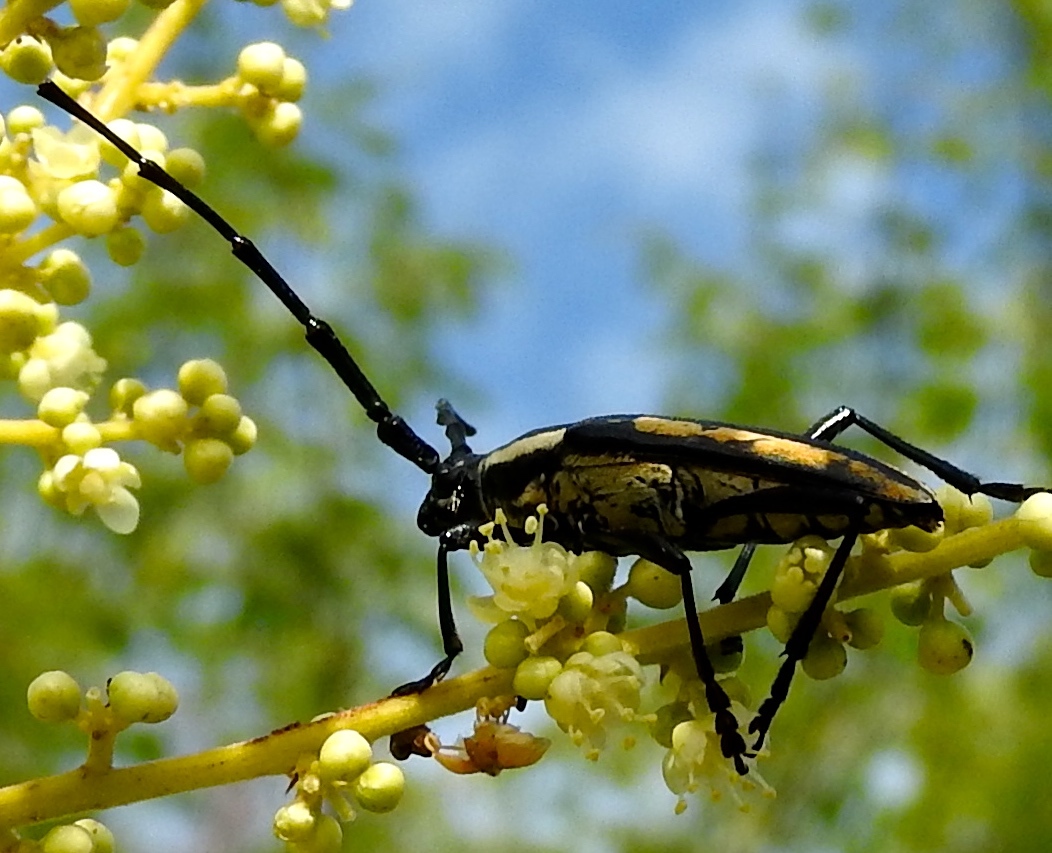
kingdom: Animalia
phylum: Arthropoda
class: Insecta
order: Coleoptera
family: Cerambycidae
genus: Sphaenothecus
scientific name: Sphaenothecus trilineatus
